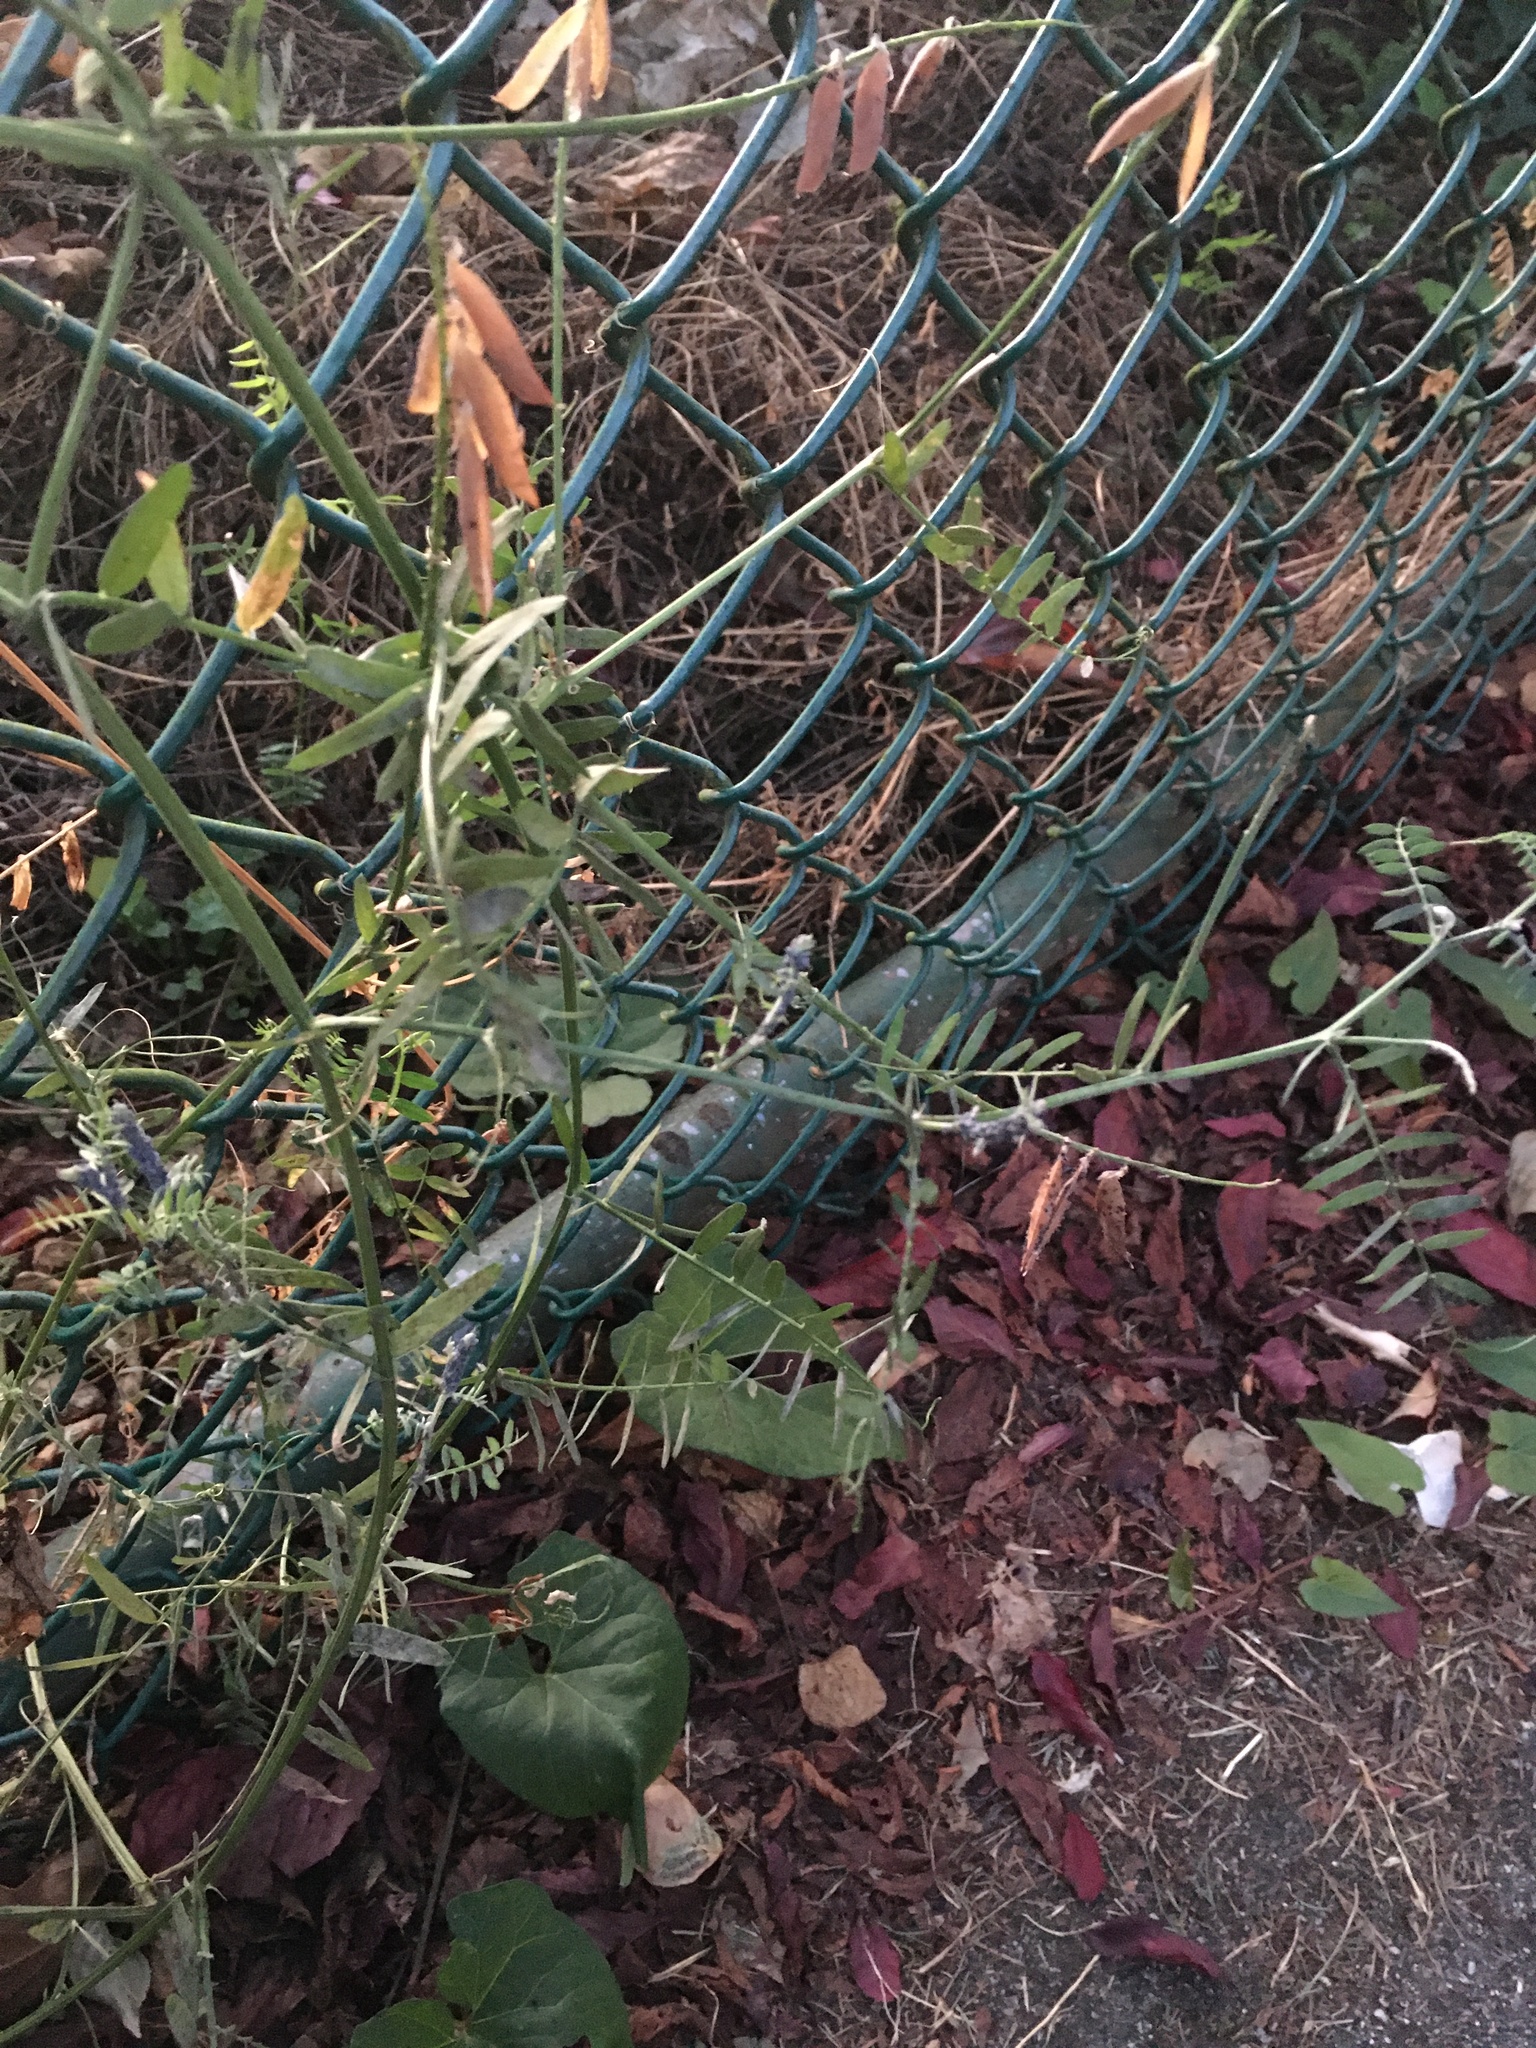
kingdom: Plantae
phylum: Tracheophyta
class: Magnoliopsida
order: Fabales
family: Fabaceae
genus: Vicia
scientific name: Vicia hirsuta
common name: Tiny vetch
